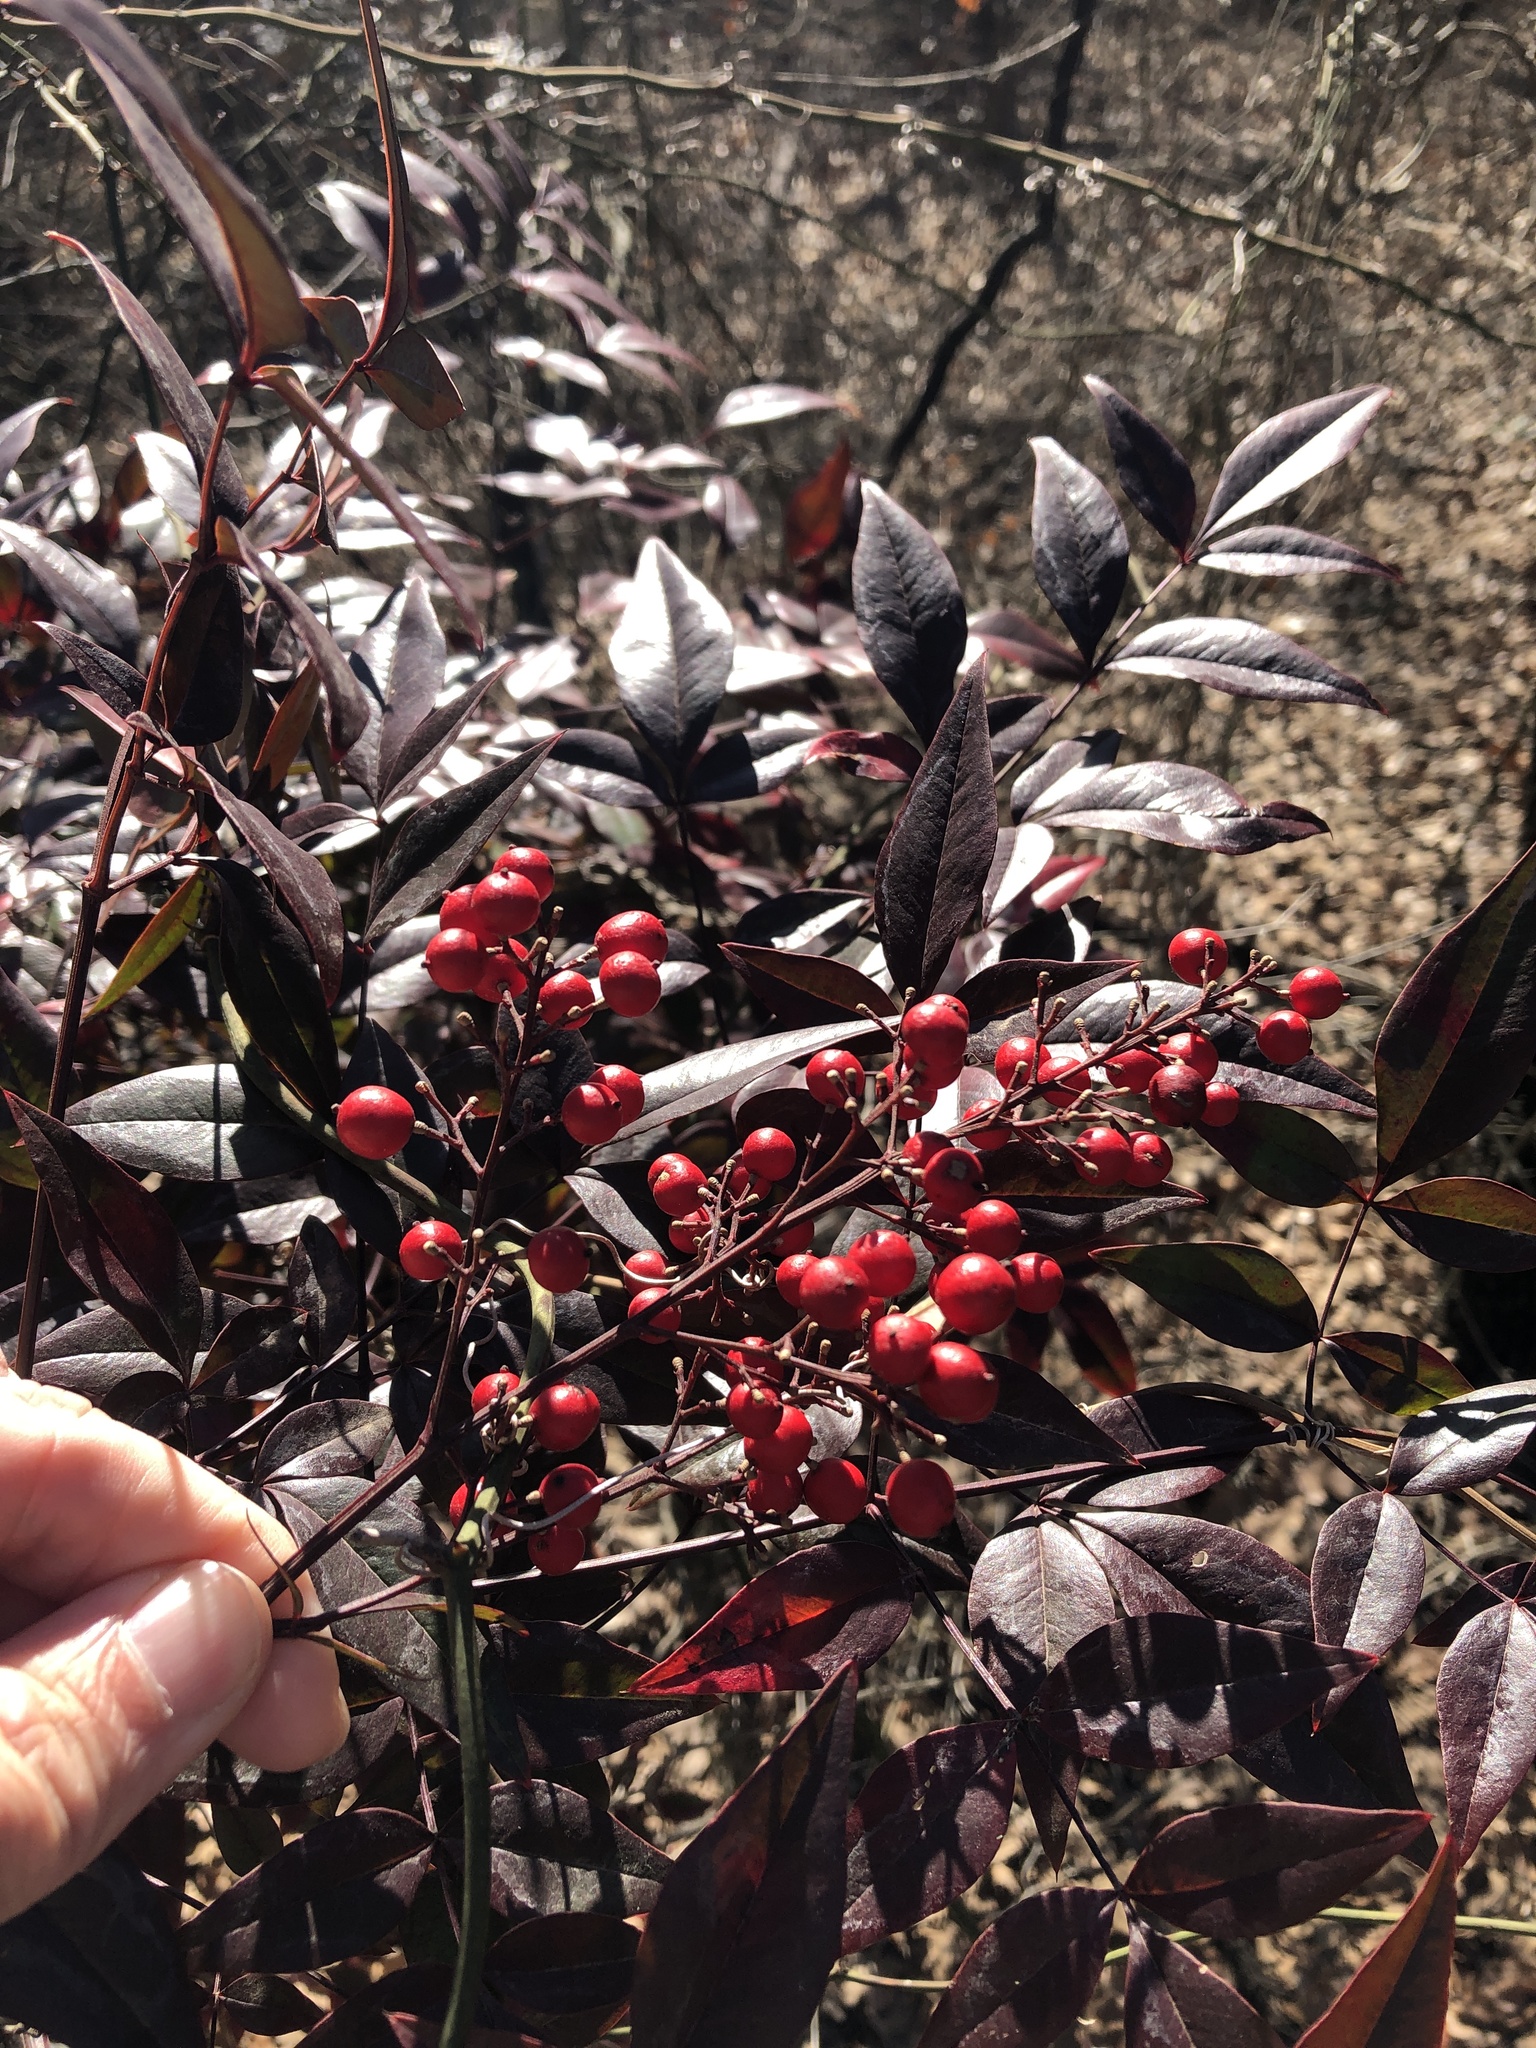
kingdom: Plantae
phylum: Tracheophyta
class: Magnoliopsida
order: Ranunculales
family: Berberidaceae
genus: Nandina
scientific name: Nandina domestica
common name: Sacred bamboo
